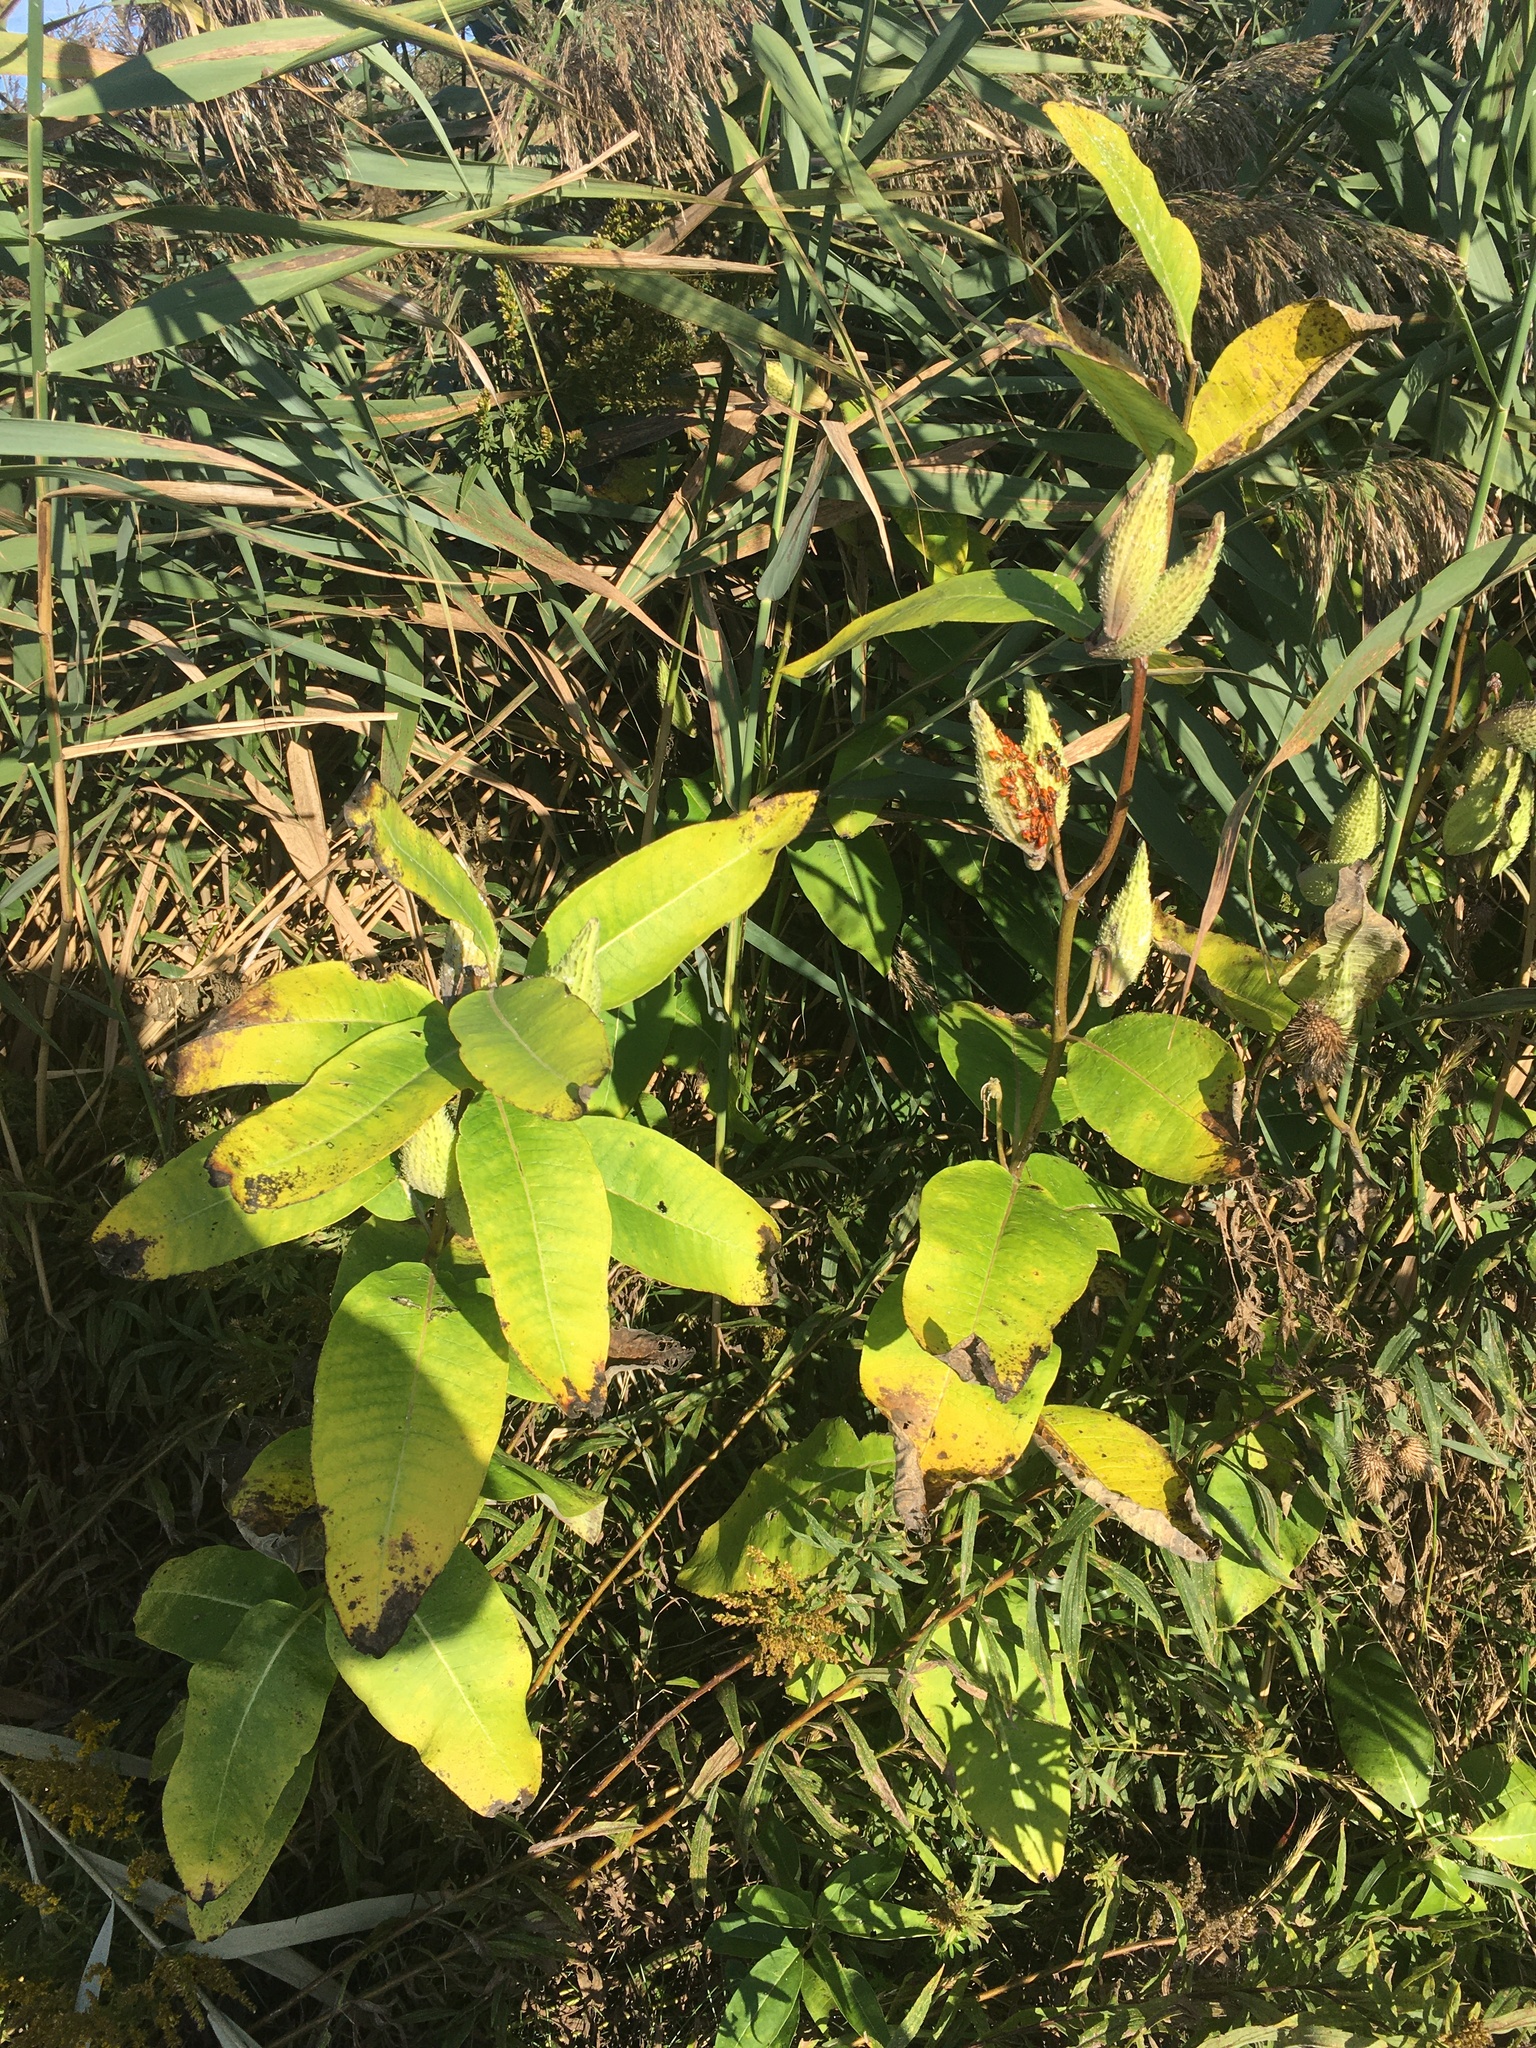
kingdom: Plantae
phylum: Tracheophyta
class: Magnoliopsida
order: Gentianales
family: Apocynaceae
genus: Asclepias
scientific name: Asclepias syriaca
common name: Common milkweed
